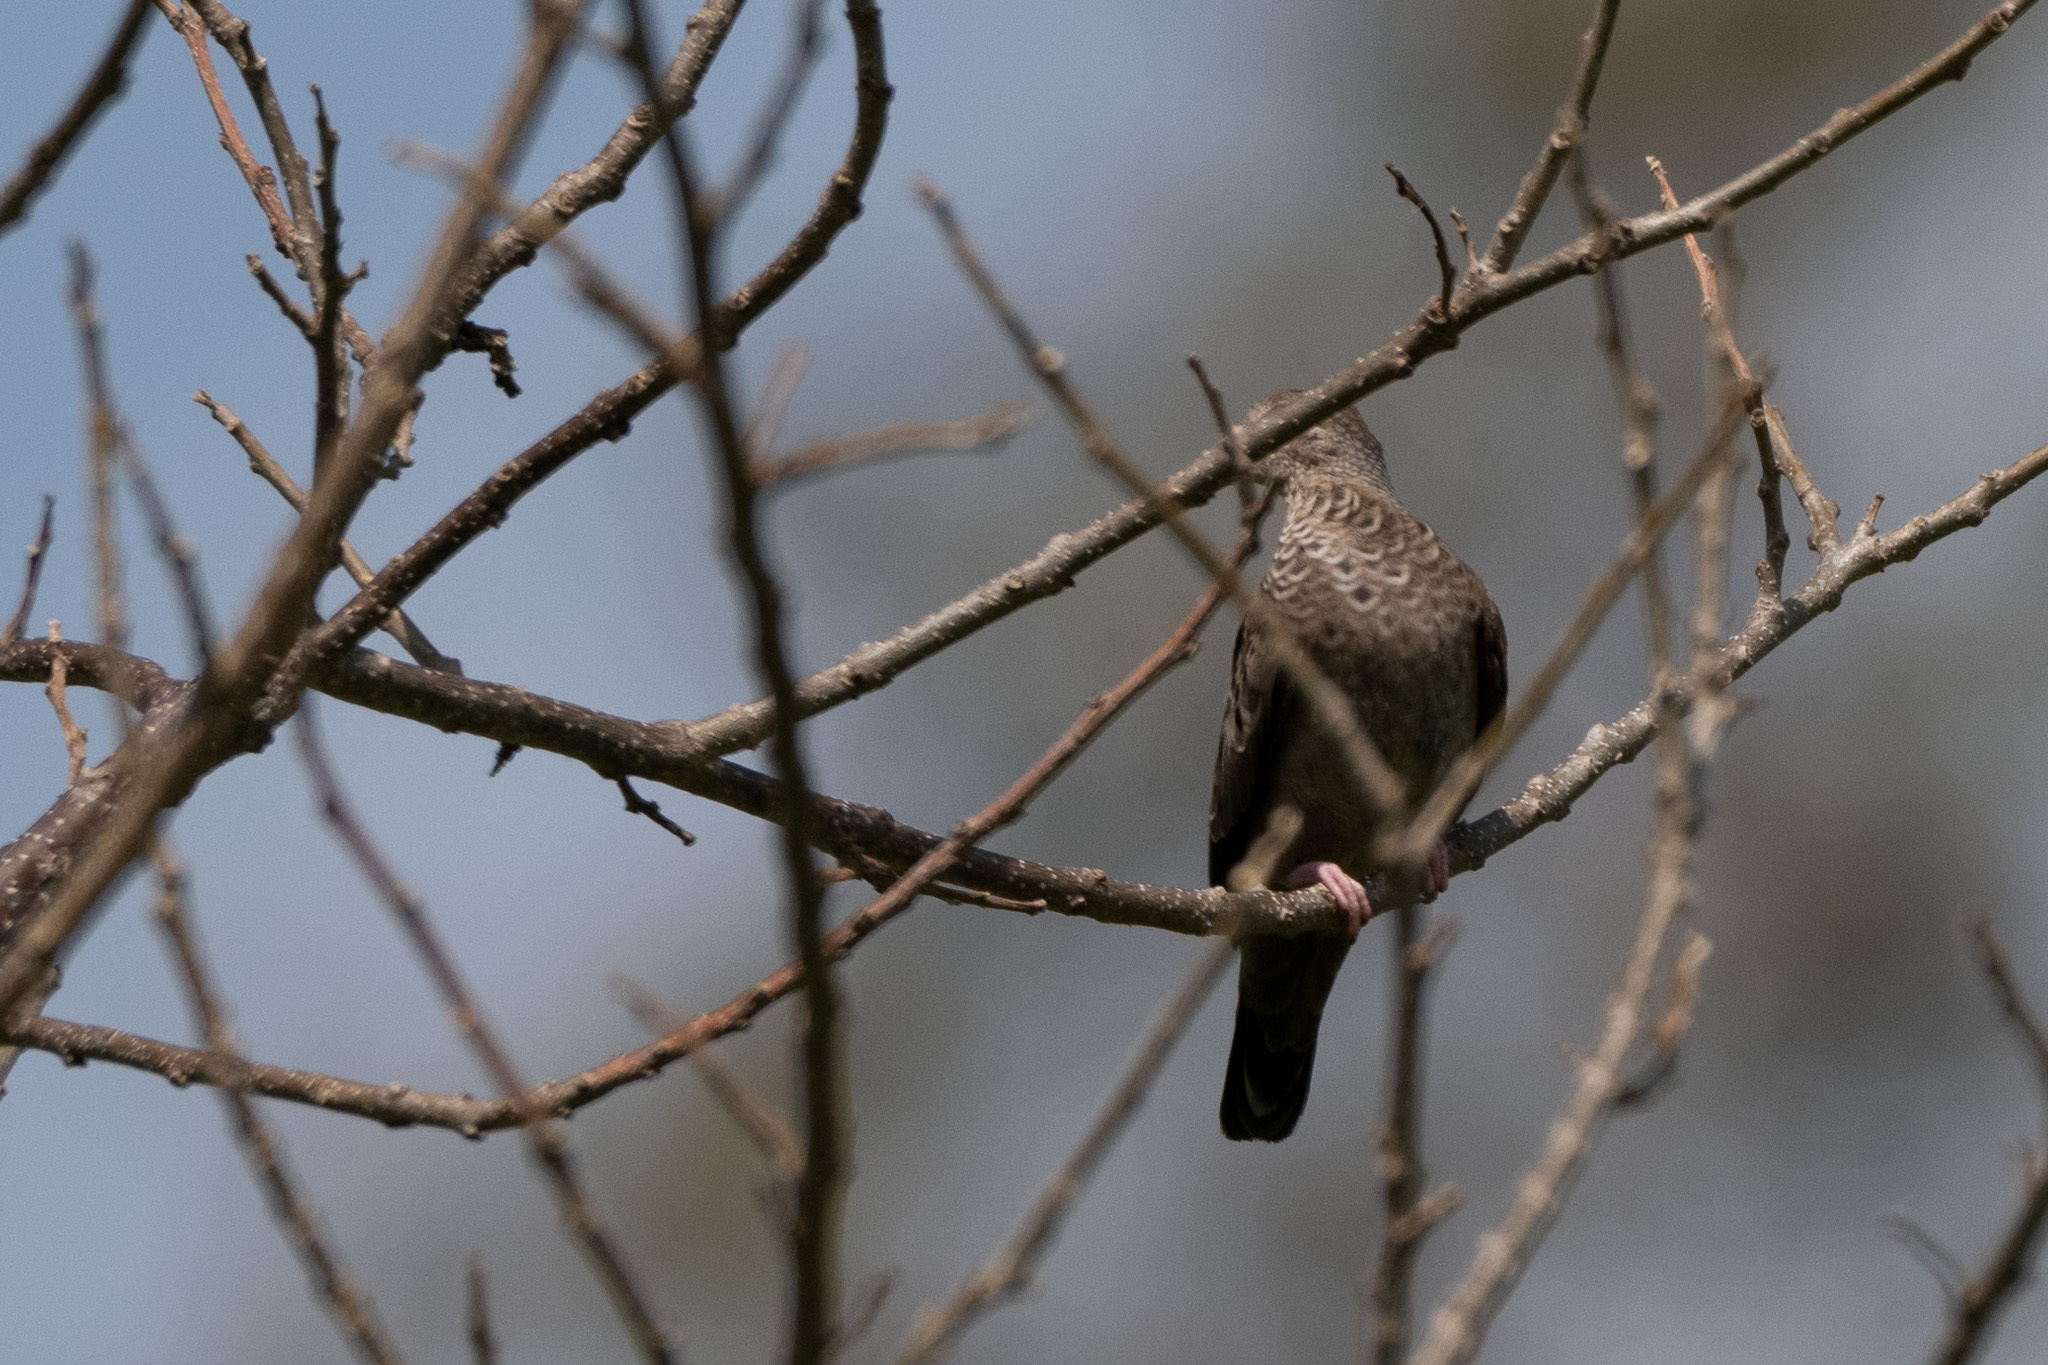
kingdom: Animalia
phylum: Chordata
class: Aves
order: Columbiformes
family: Columbidae
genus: Columbina
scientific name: Columbina passerina
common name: Common ground-dove
